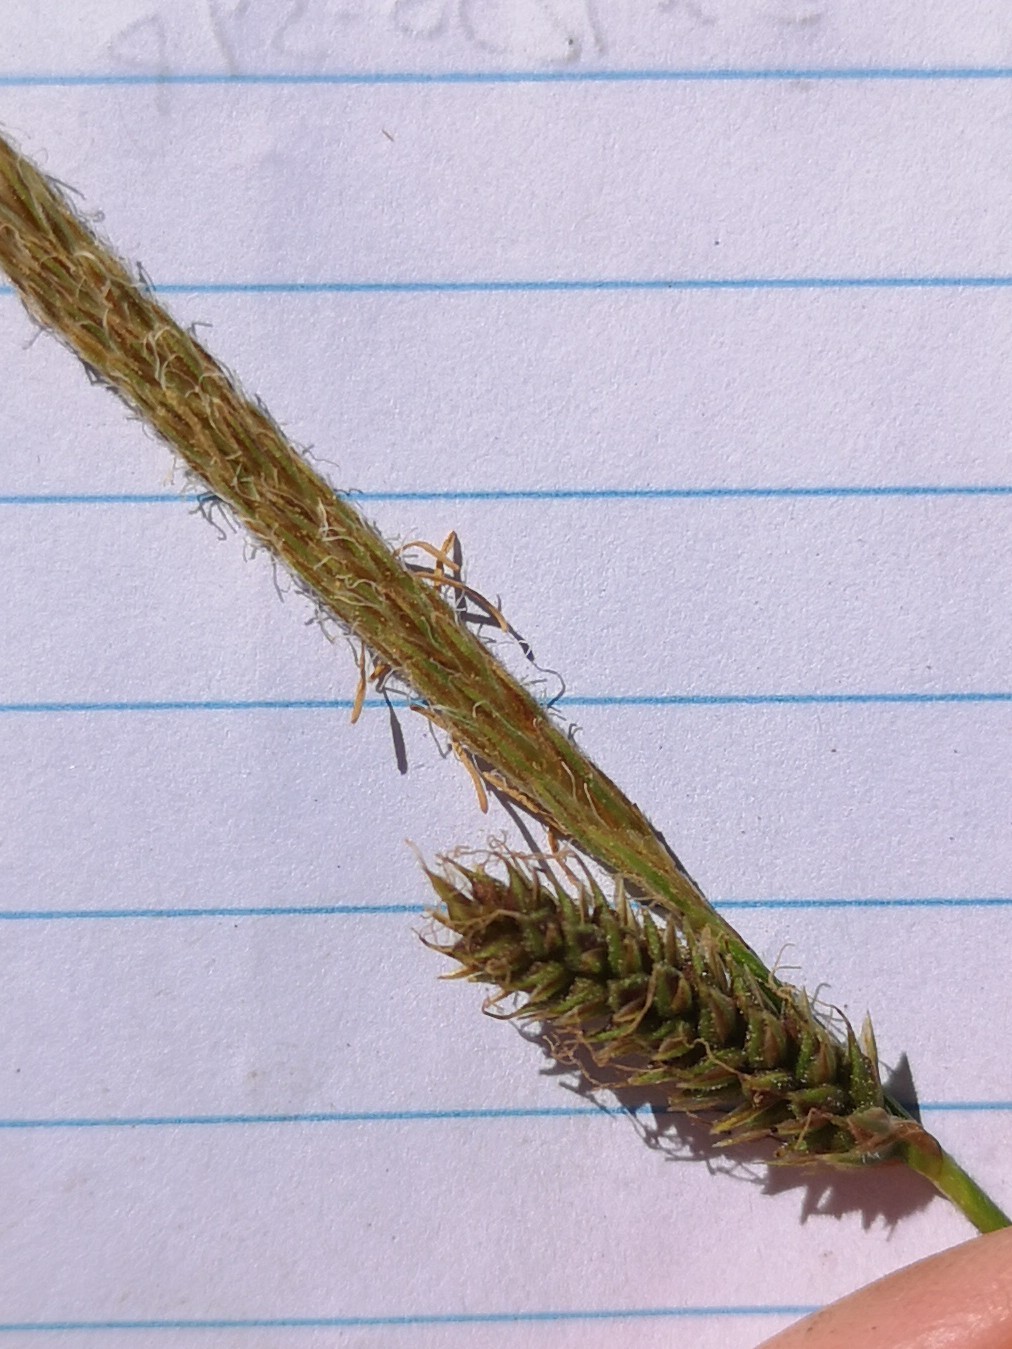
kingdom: Plantae
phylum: Tracheophyta
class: Liliopsida
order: Poales
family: Cyperaceae
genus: Carex
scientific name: Carex sartwelliana
